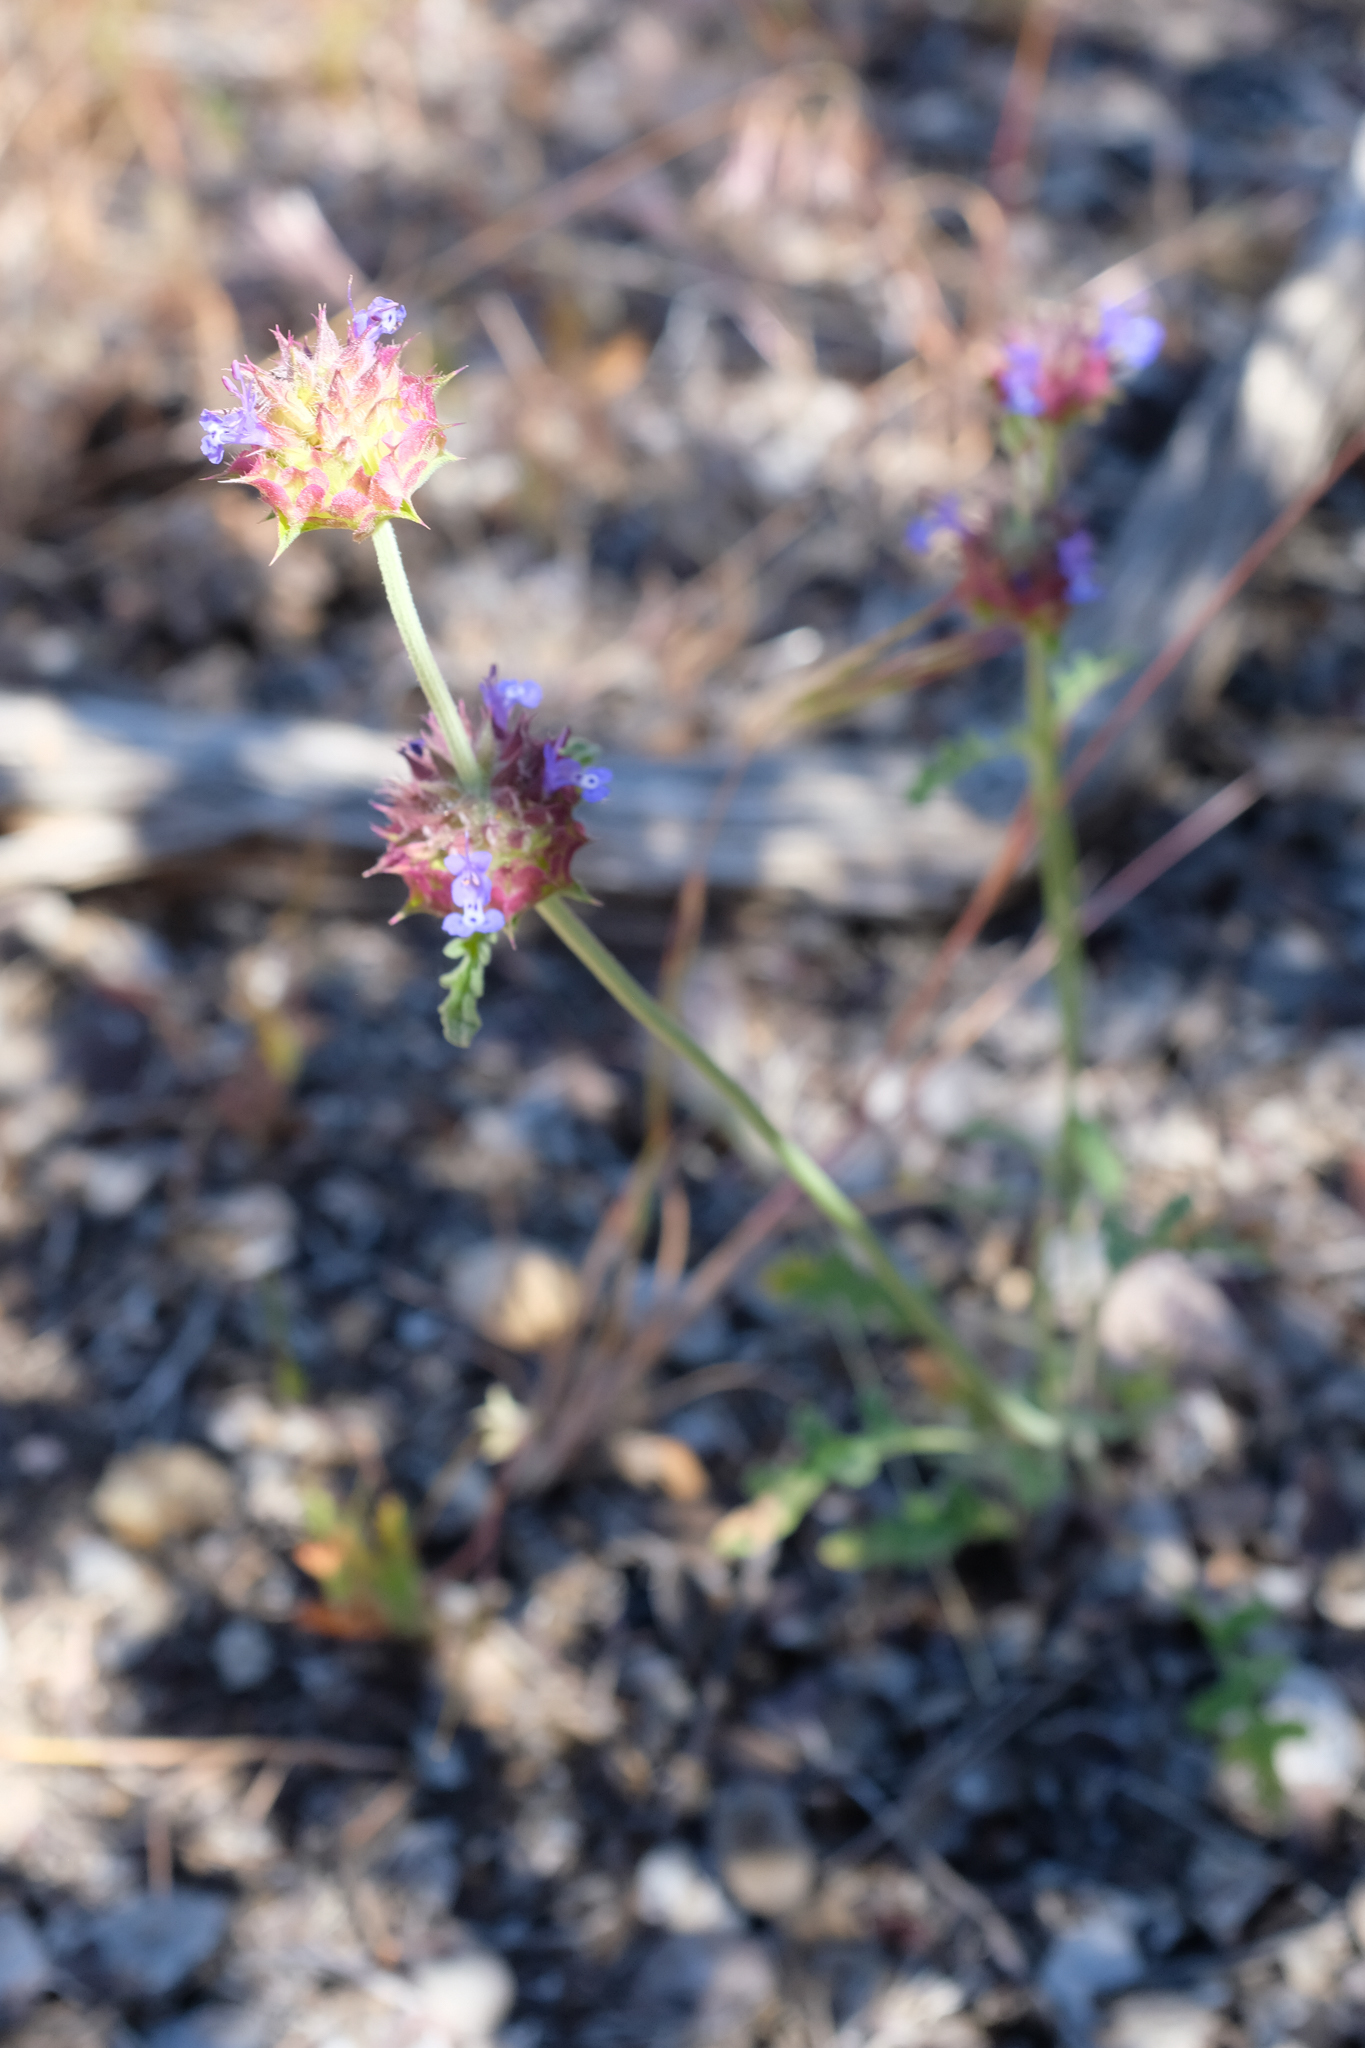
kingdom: Plantae
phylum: Tracheophyta
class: Magnoliopsida
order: Lamiales
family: Lamiaceae
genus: Salvia
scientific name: Salvia columbariae
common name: Chia
